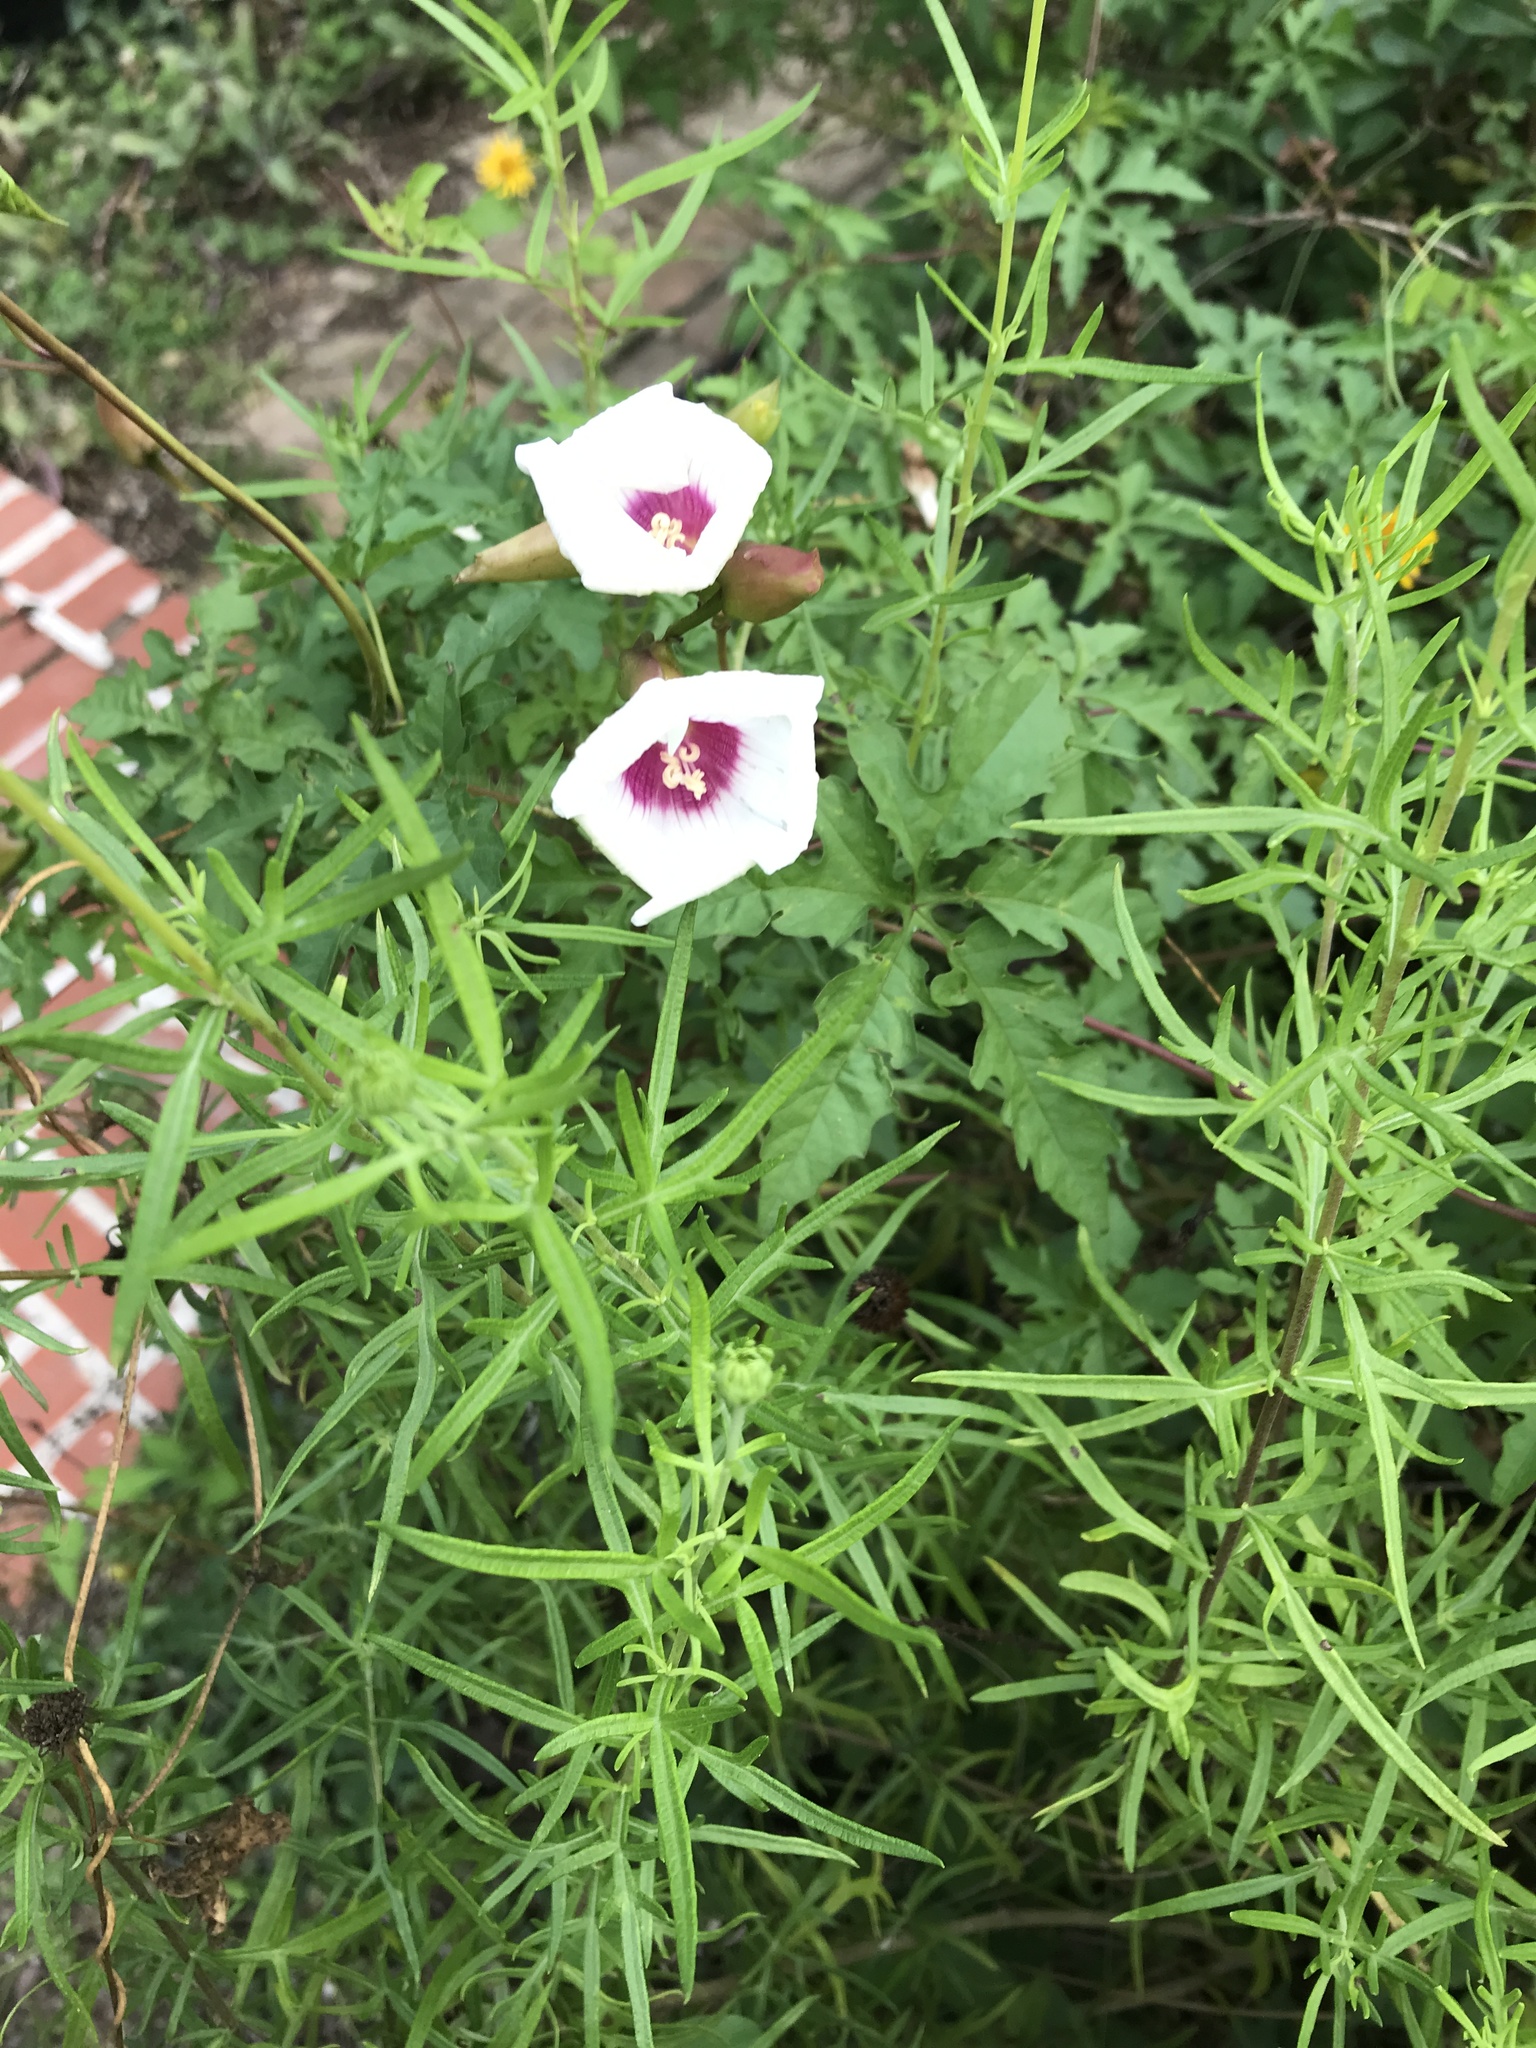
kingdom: Plantae
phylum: Tracheophyta
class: Magnoliopsida
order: Solanales
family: Convolvulaceae
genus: Distimake
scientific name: Distimake dissectus
